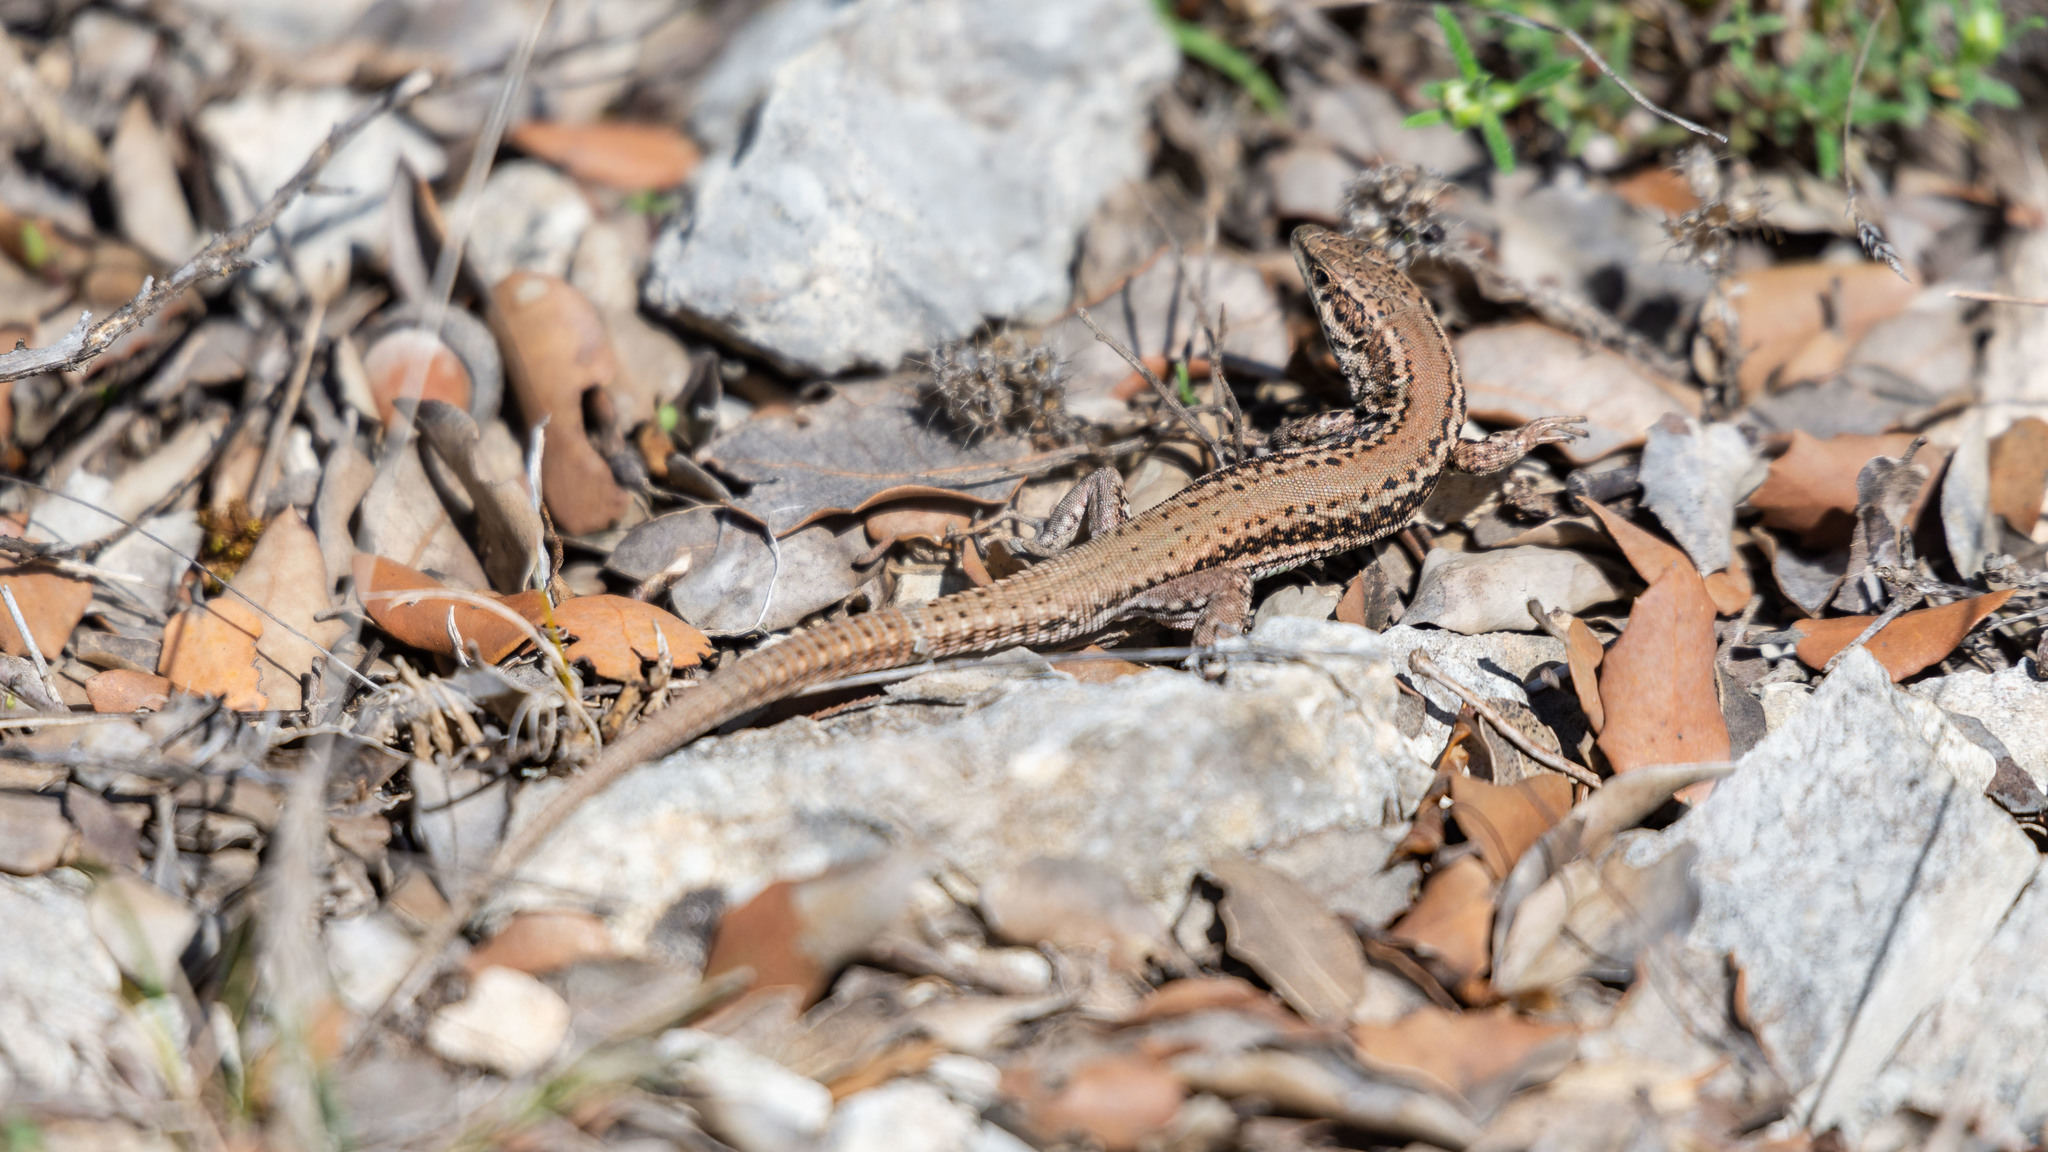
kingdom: Animalia
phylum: Chordata
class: Squamata
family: Lacertidae
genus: Podarcis
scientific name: Podarcis liolepis
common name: Catalonian wall lizard
